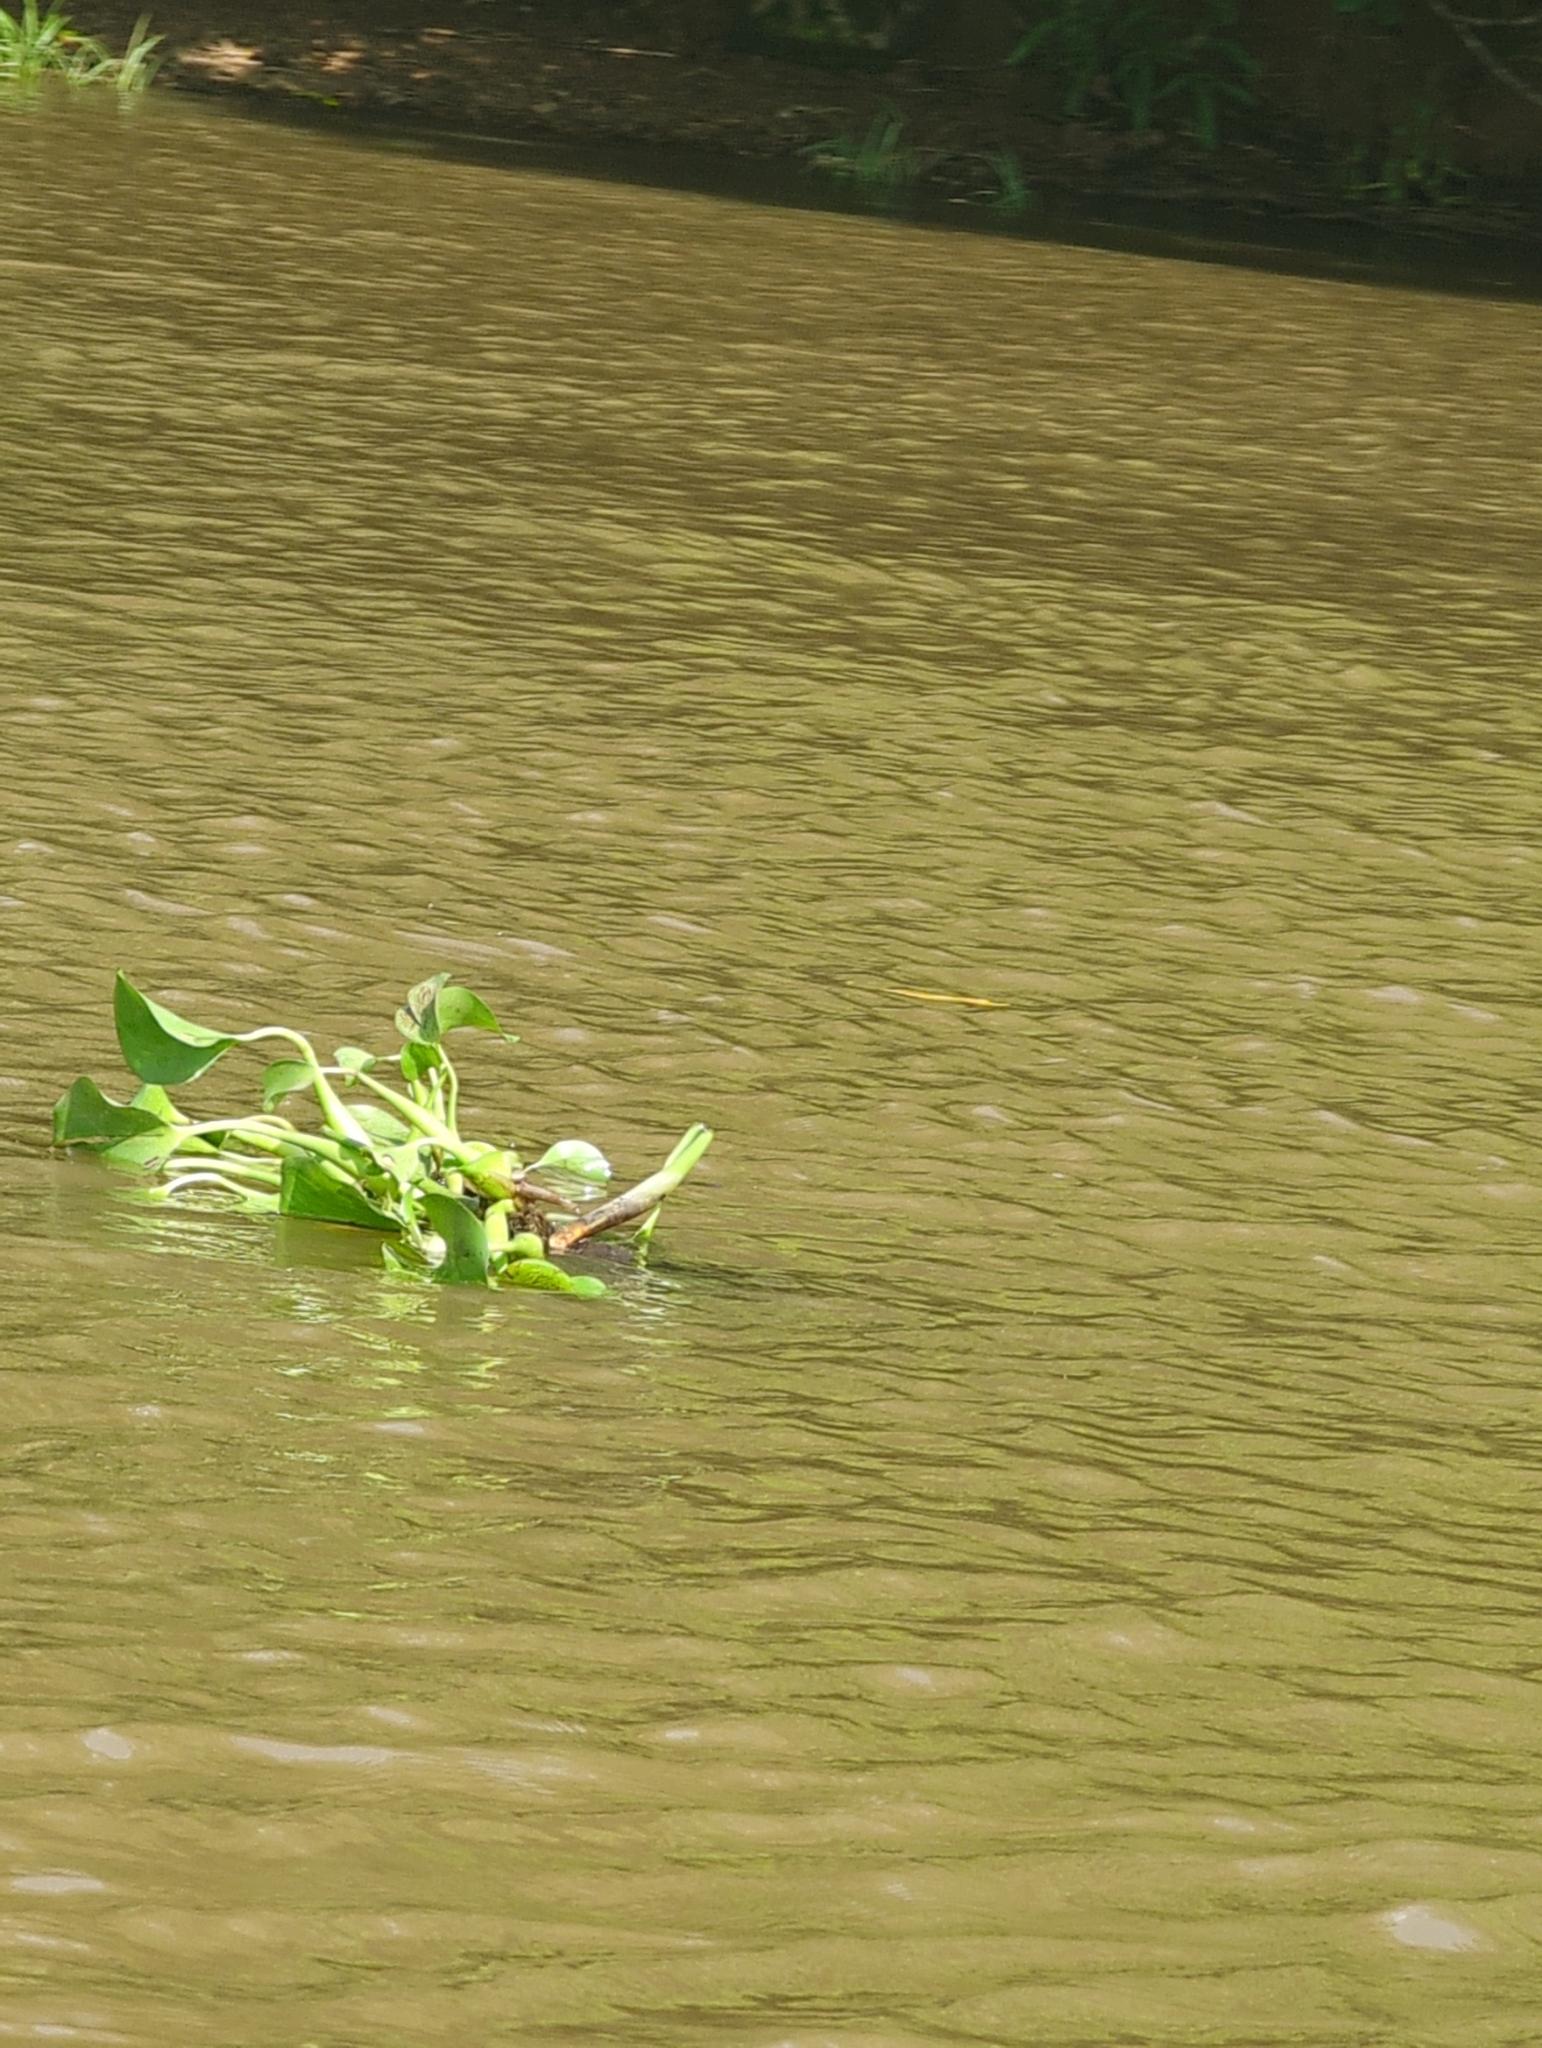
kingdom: Plantae
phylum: Tracheophyta
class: Liliopsida
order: Commelinales
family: Pontederiaceae
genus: Pontederia
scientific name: Pontederia crassipes
